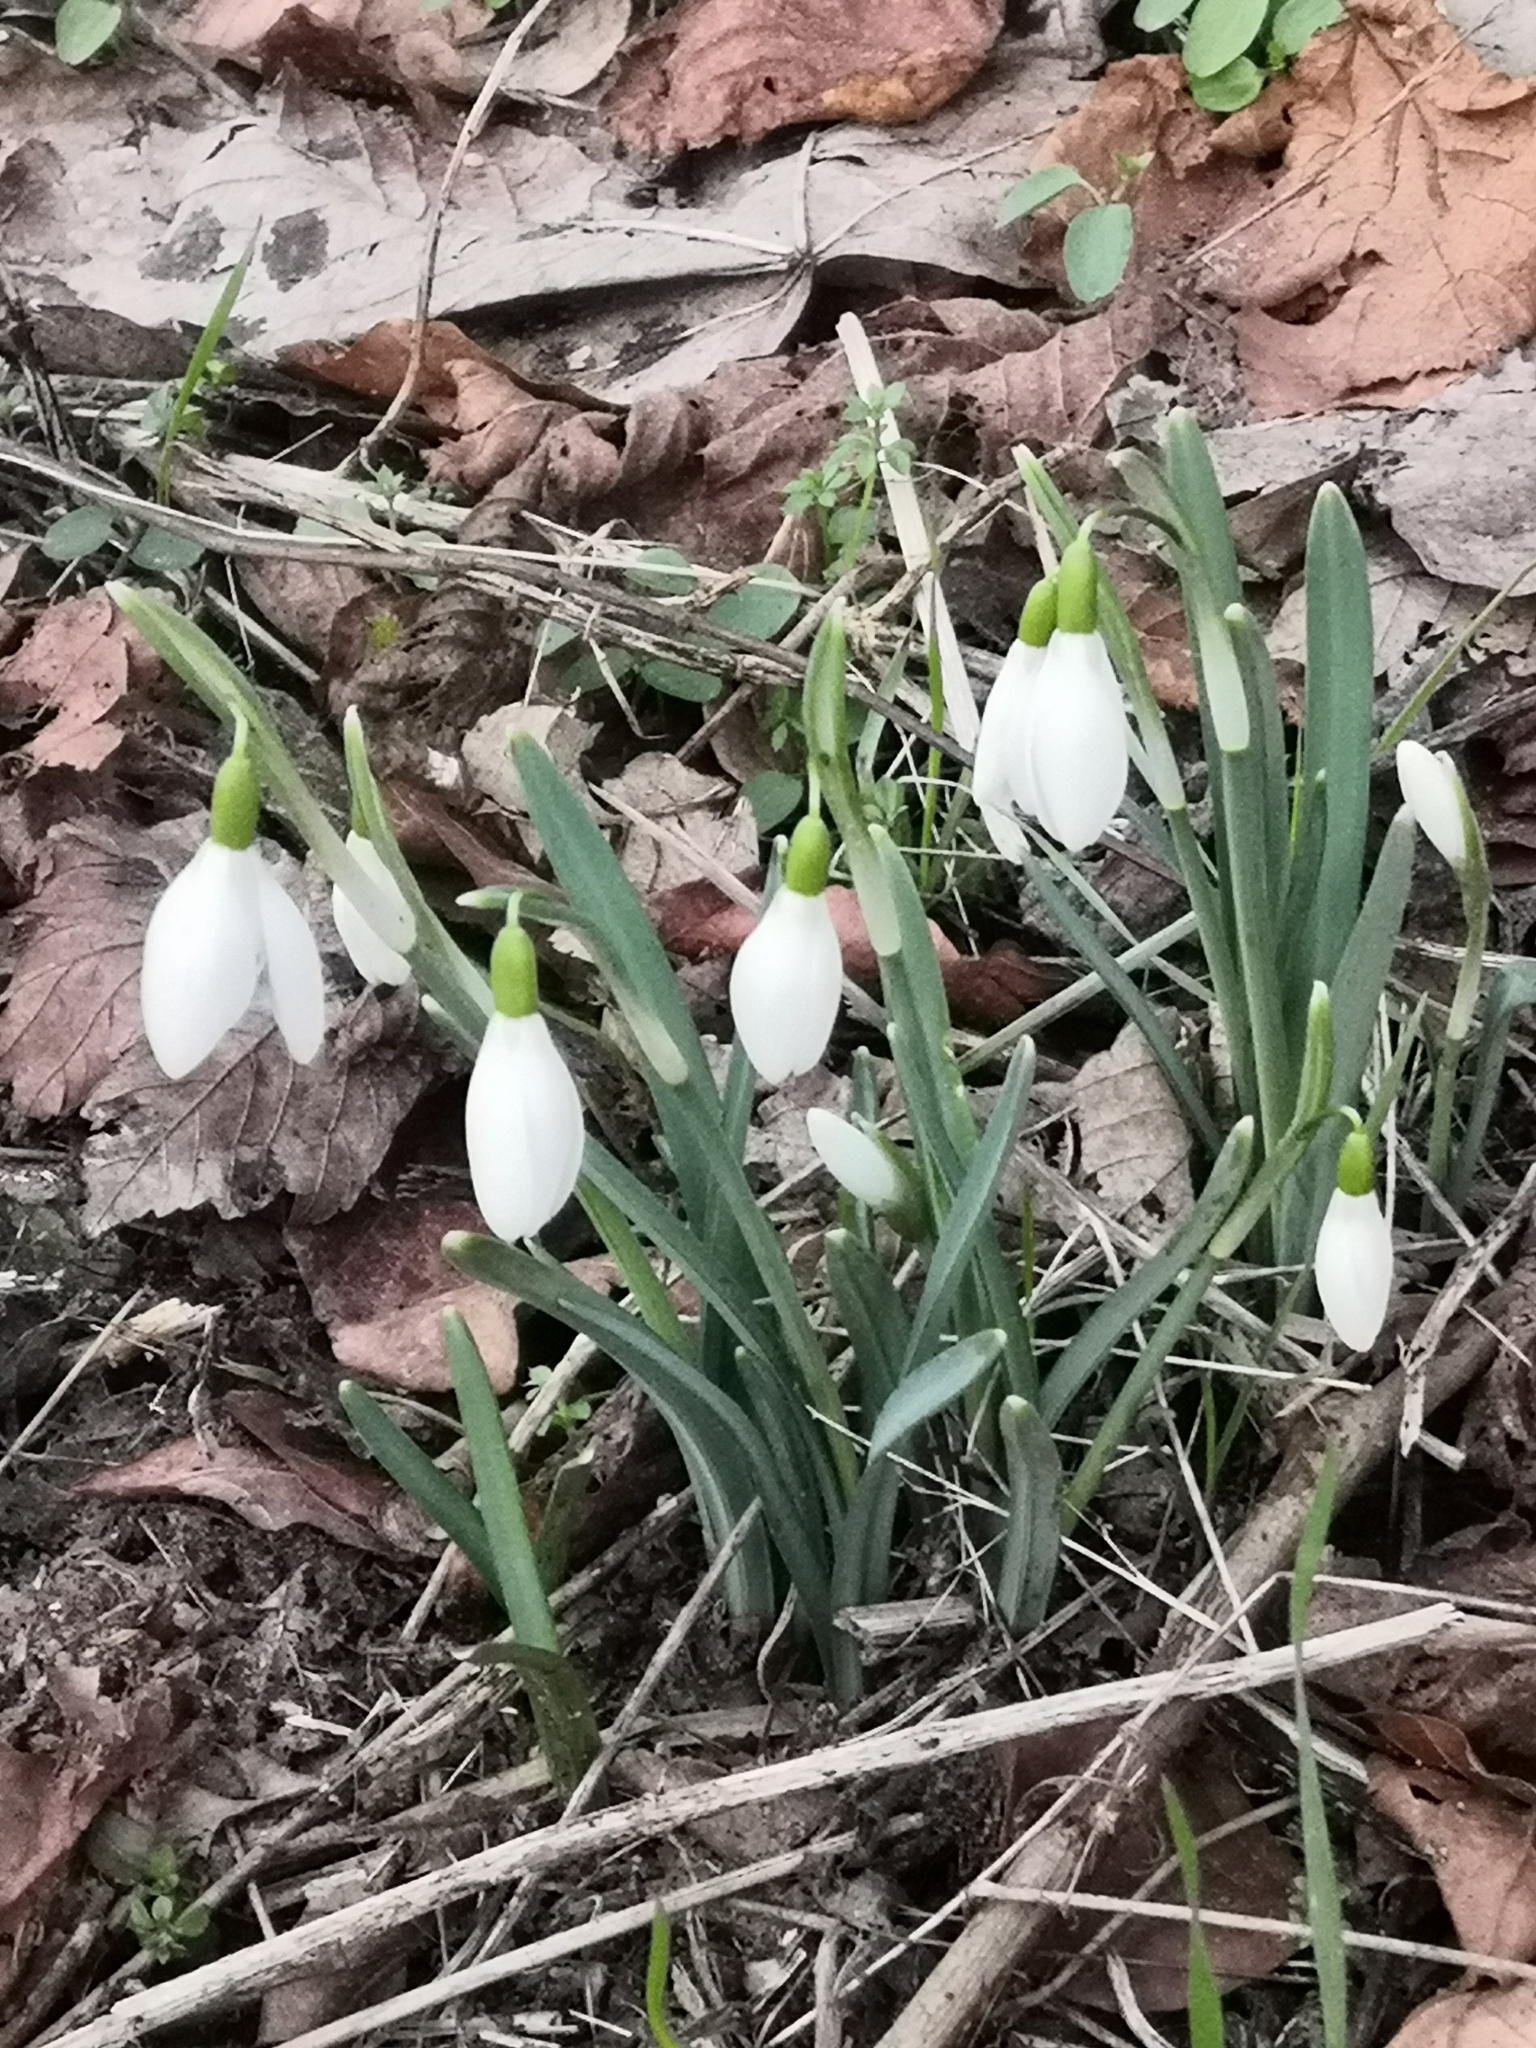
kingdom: Plantae
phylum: Tracheophyta
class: Liliopsida
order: Asparagales
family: Amaryllidaceae
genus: Galanthus
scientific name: Galanthus nivalis
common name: Snowdrop
